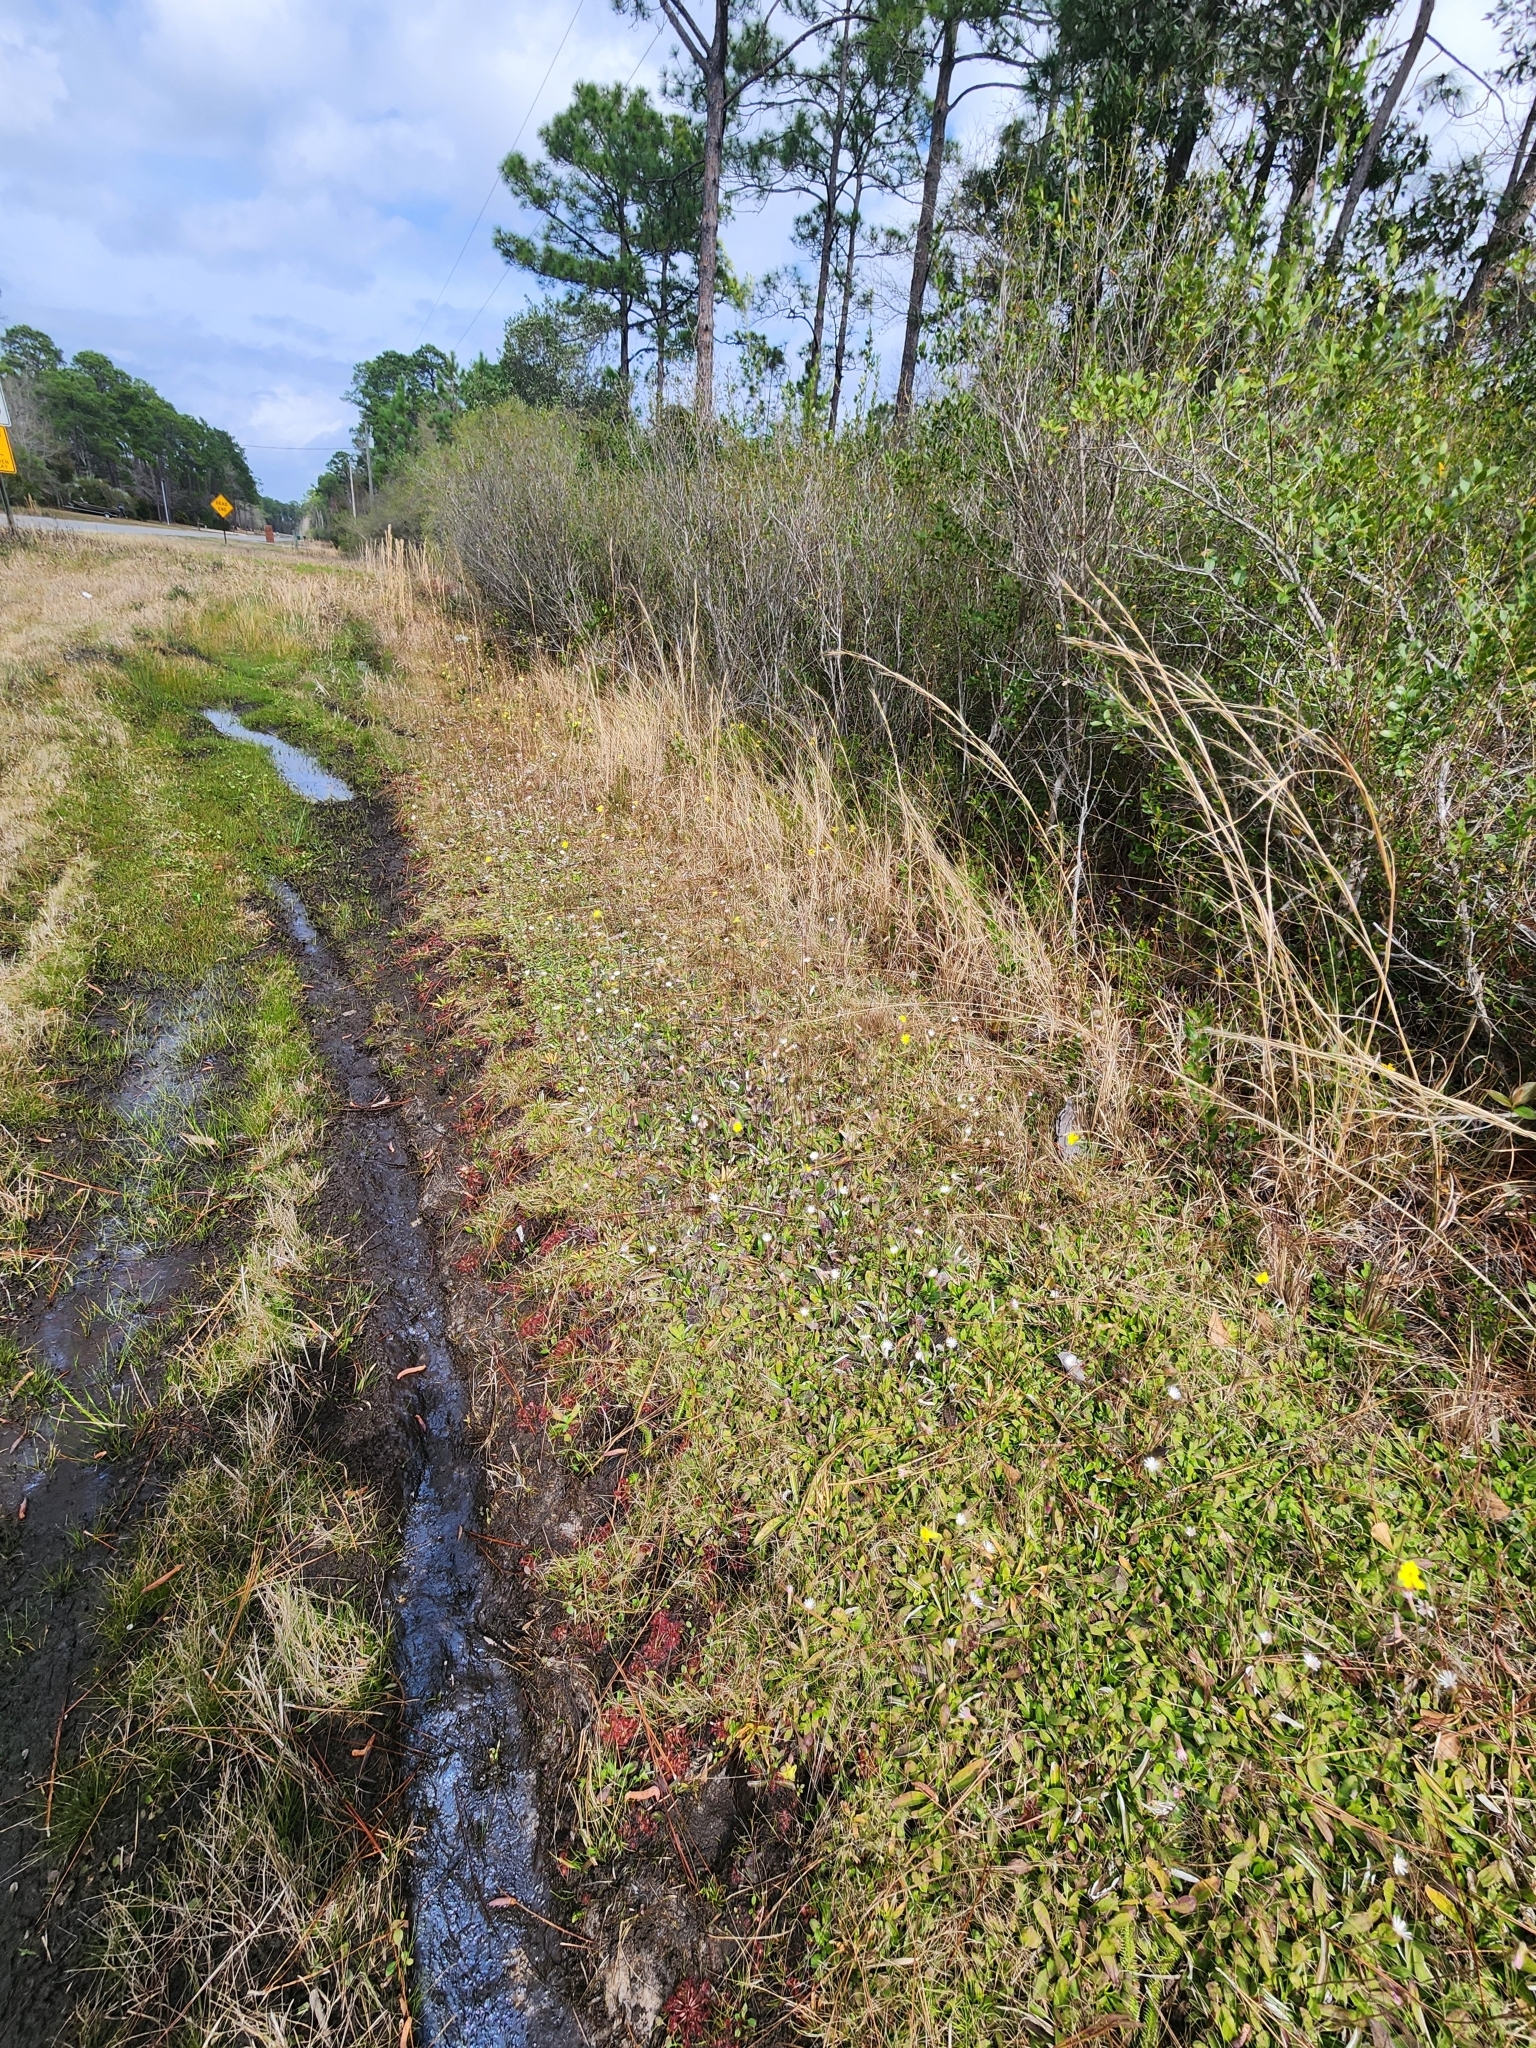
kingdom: Plantae
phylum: Tracheophyta
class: Magnoliopsida
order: Lamiales
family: Lentibulariaceae
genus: Pinguicula
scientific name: Pinguicula lutea
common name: Yellow butterwort
